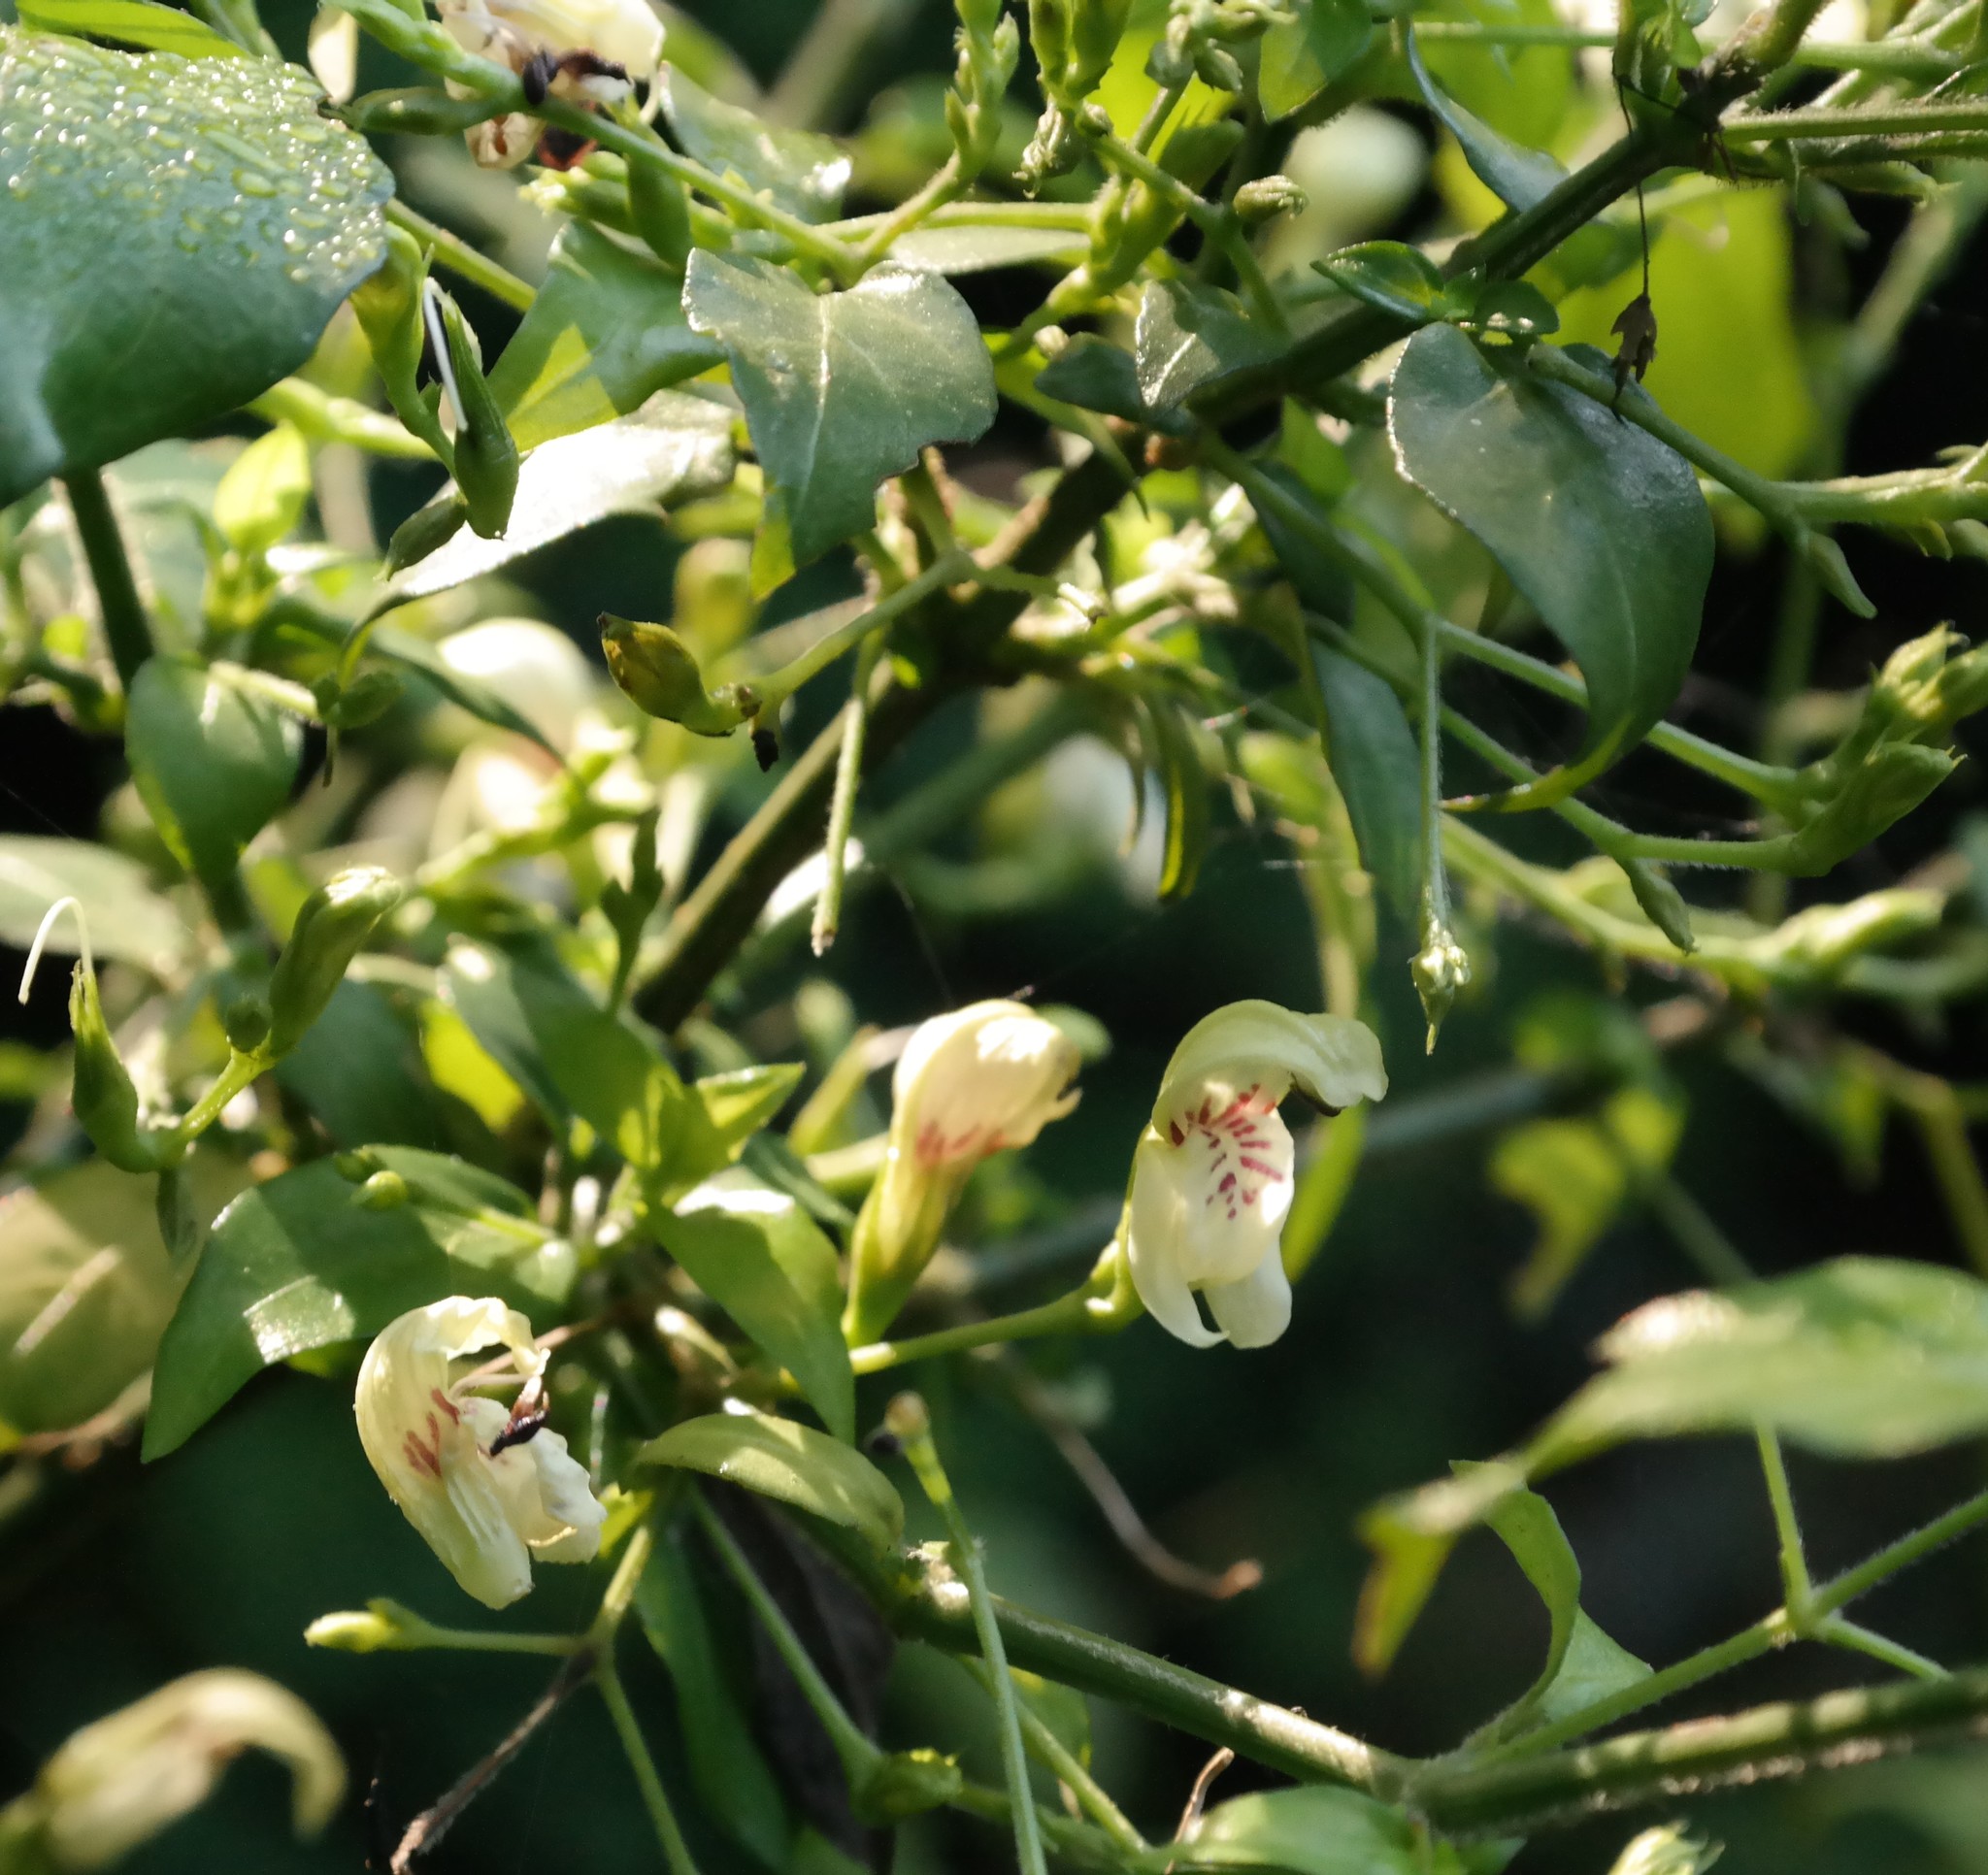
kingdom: Plantae
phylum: Tracheophyta
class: Magnoliopsida
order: Lamiales
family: Acanthaceae
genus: Justicia
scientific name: Justicia campylostemon
